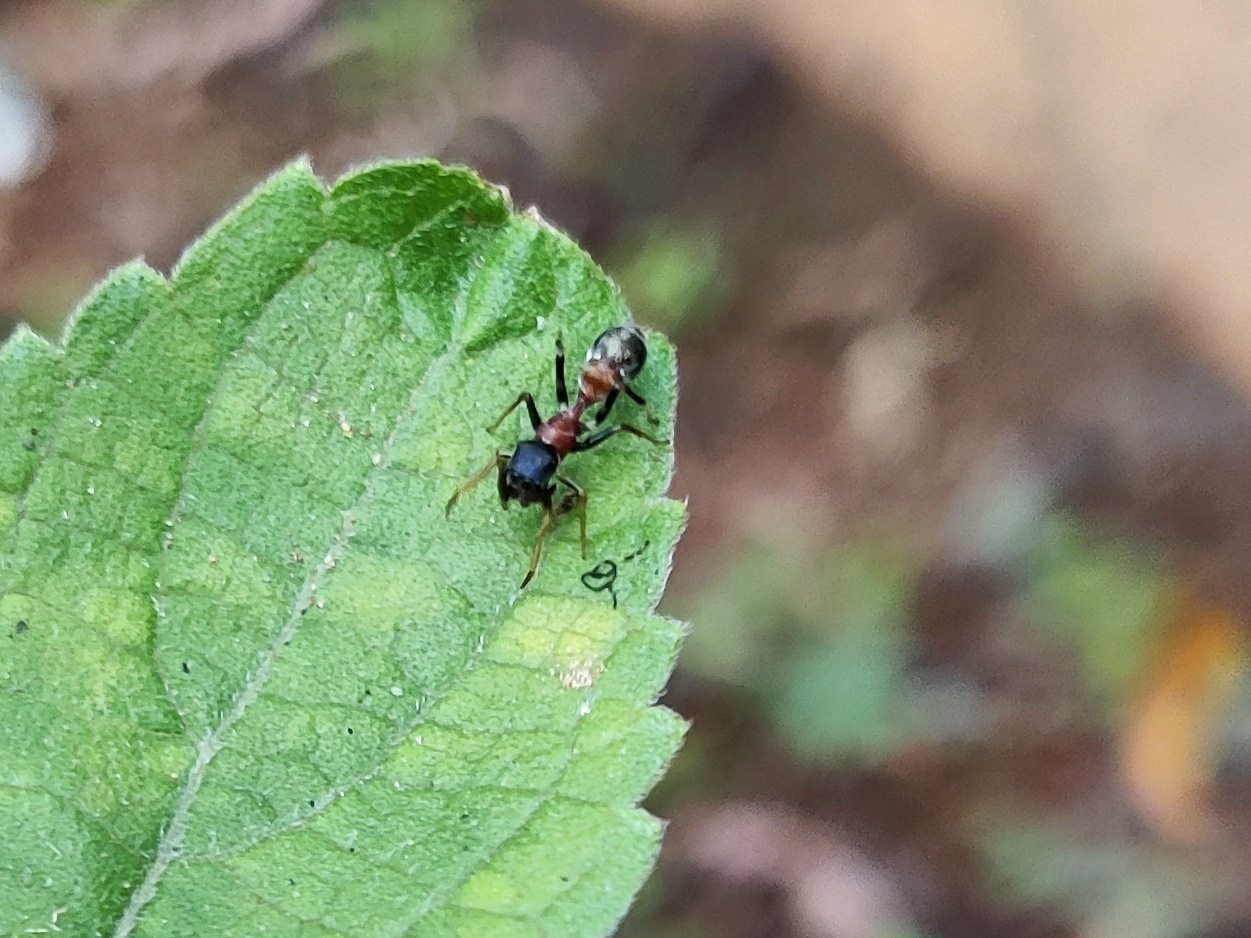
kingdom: Animalia
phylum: Arthropoda
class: Arachnida
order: Araneae
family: Salticidae
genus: Myrmarachne
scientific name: Myrmarachne melanocephala
